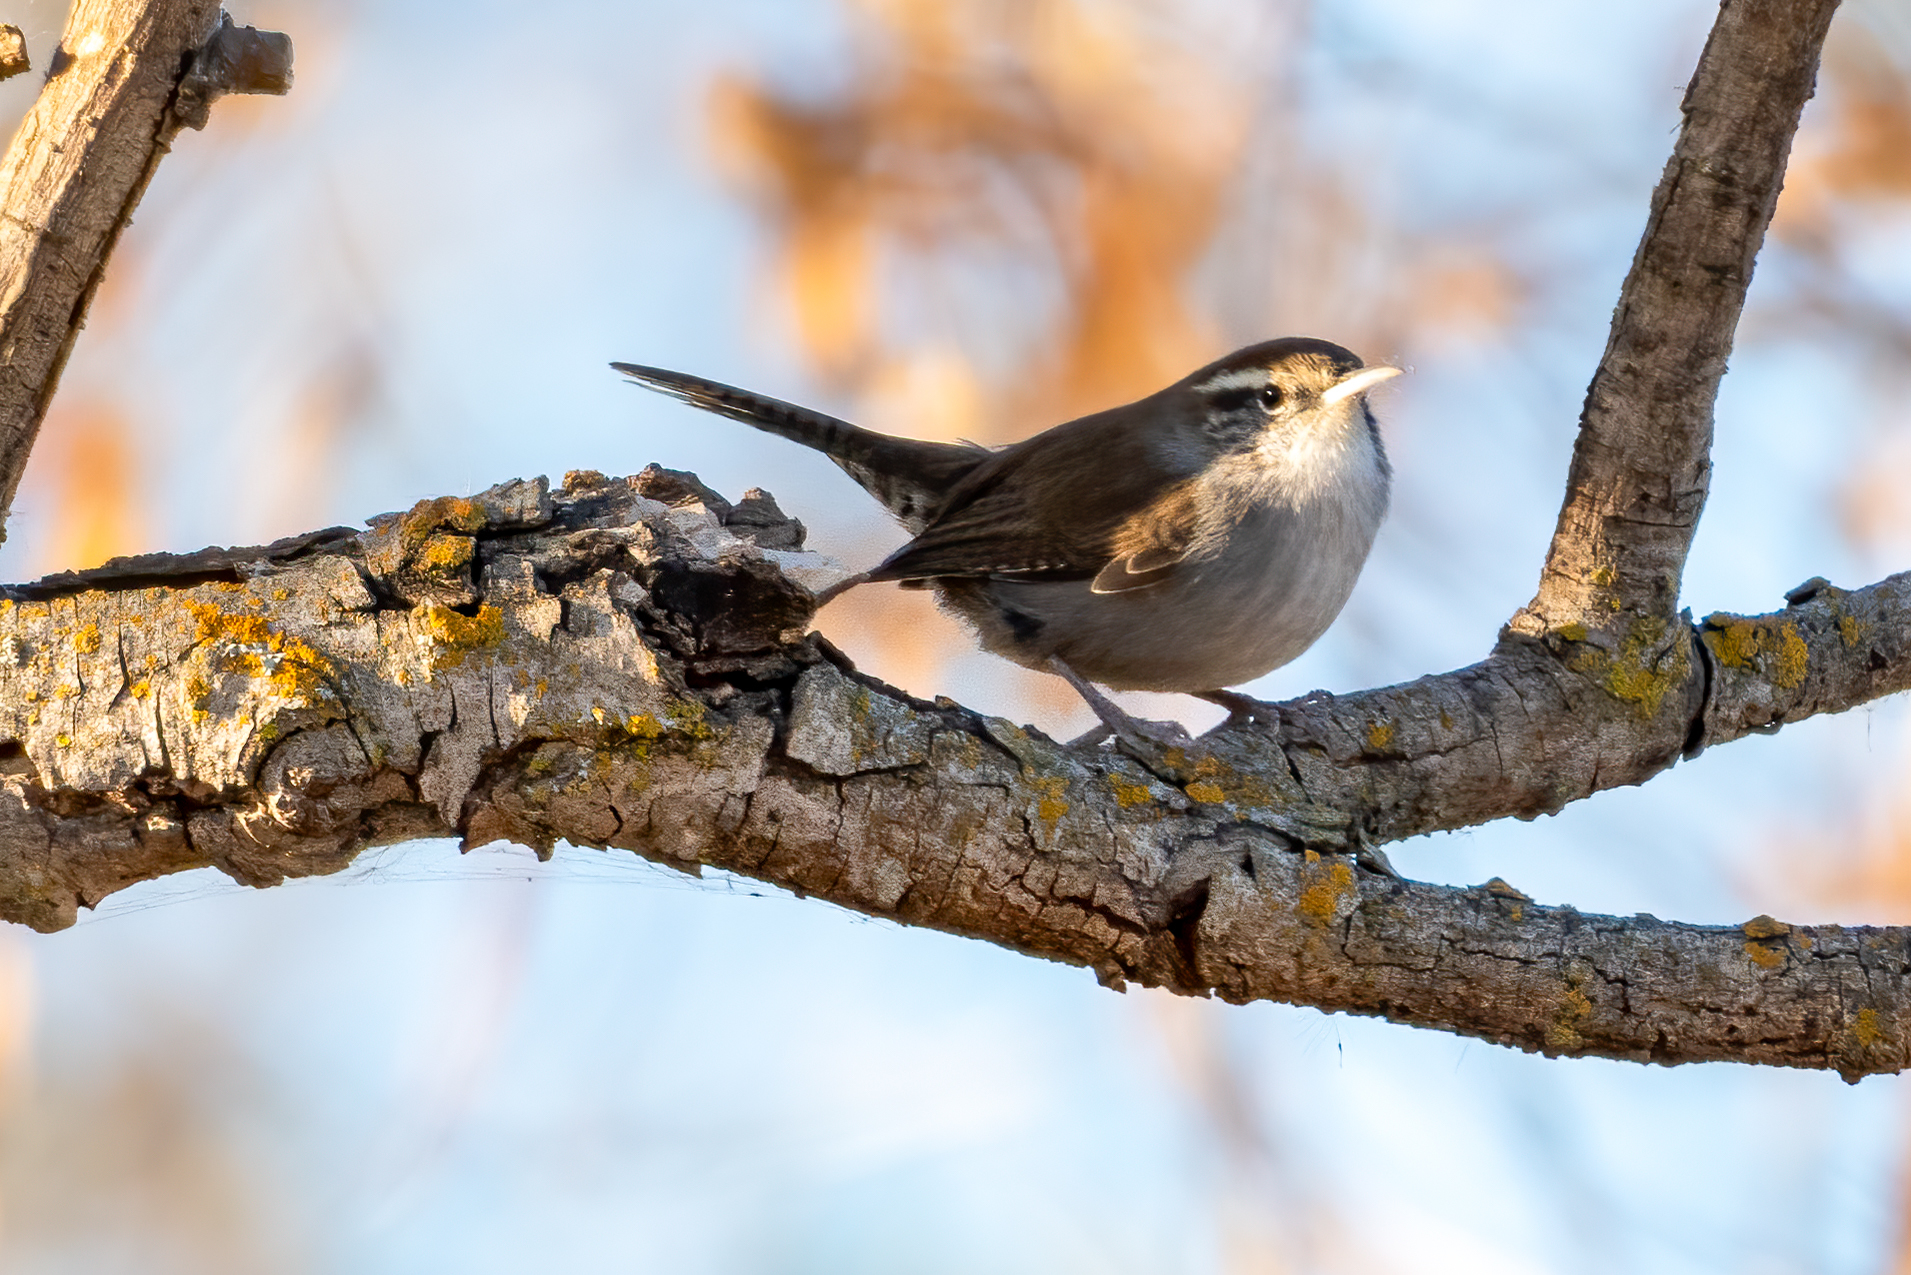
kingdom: Animalia
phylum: Chordata
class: Aves
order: Passeriformes
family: Troglodytidae
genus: Thryomanes
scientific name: Thryomanes bewickii
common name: Bewick's wren
